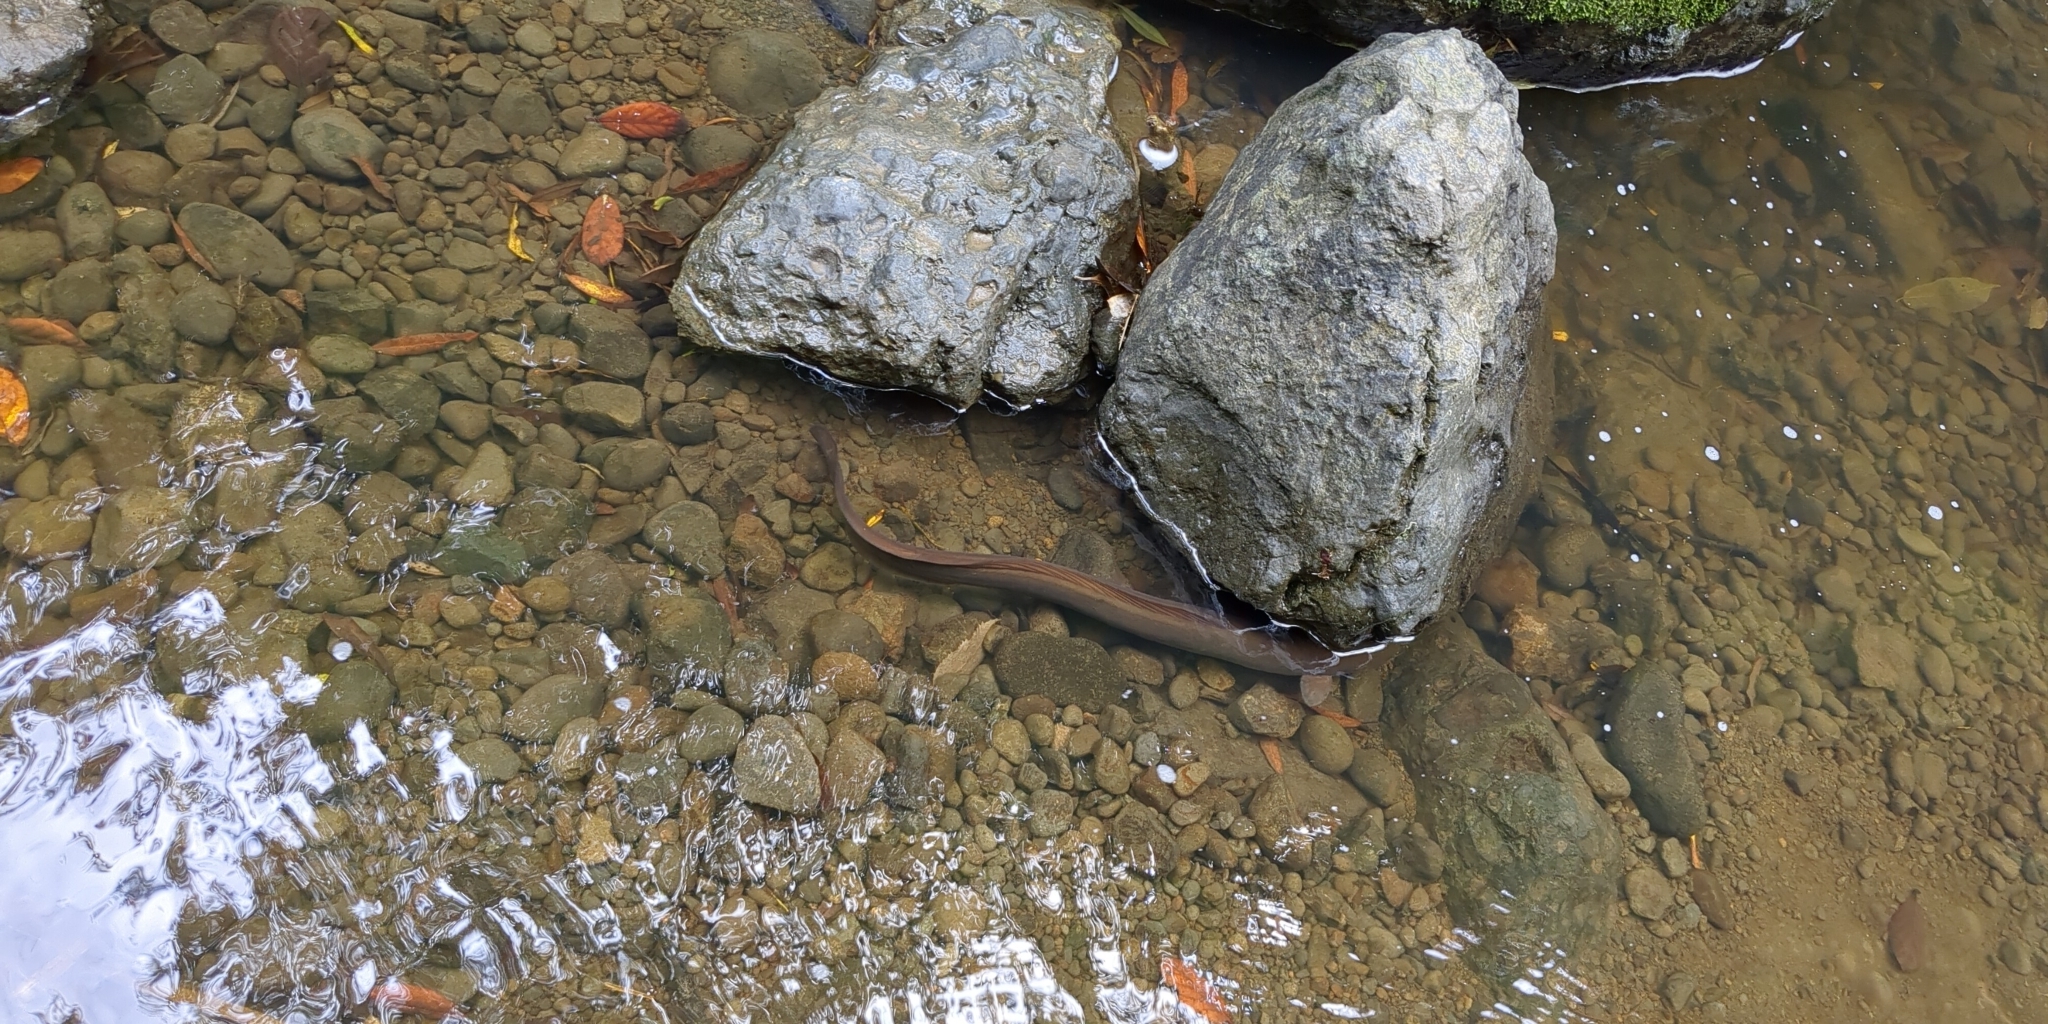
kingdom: Animalia
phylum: Chordata
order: Anguilliformes
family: Anguillidae
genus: Anguilla
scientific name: Anguilla dieffenbachii
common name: New zealand longfin eel
